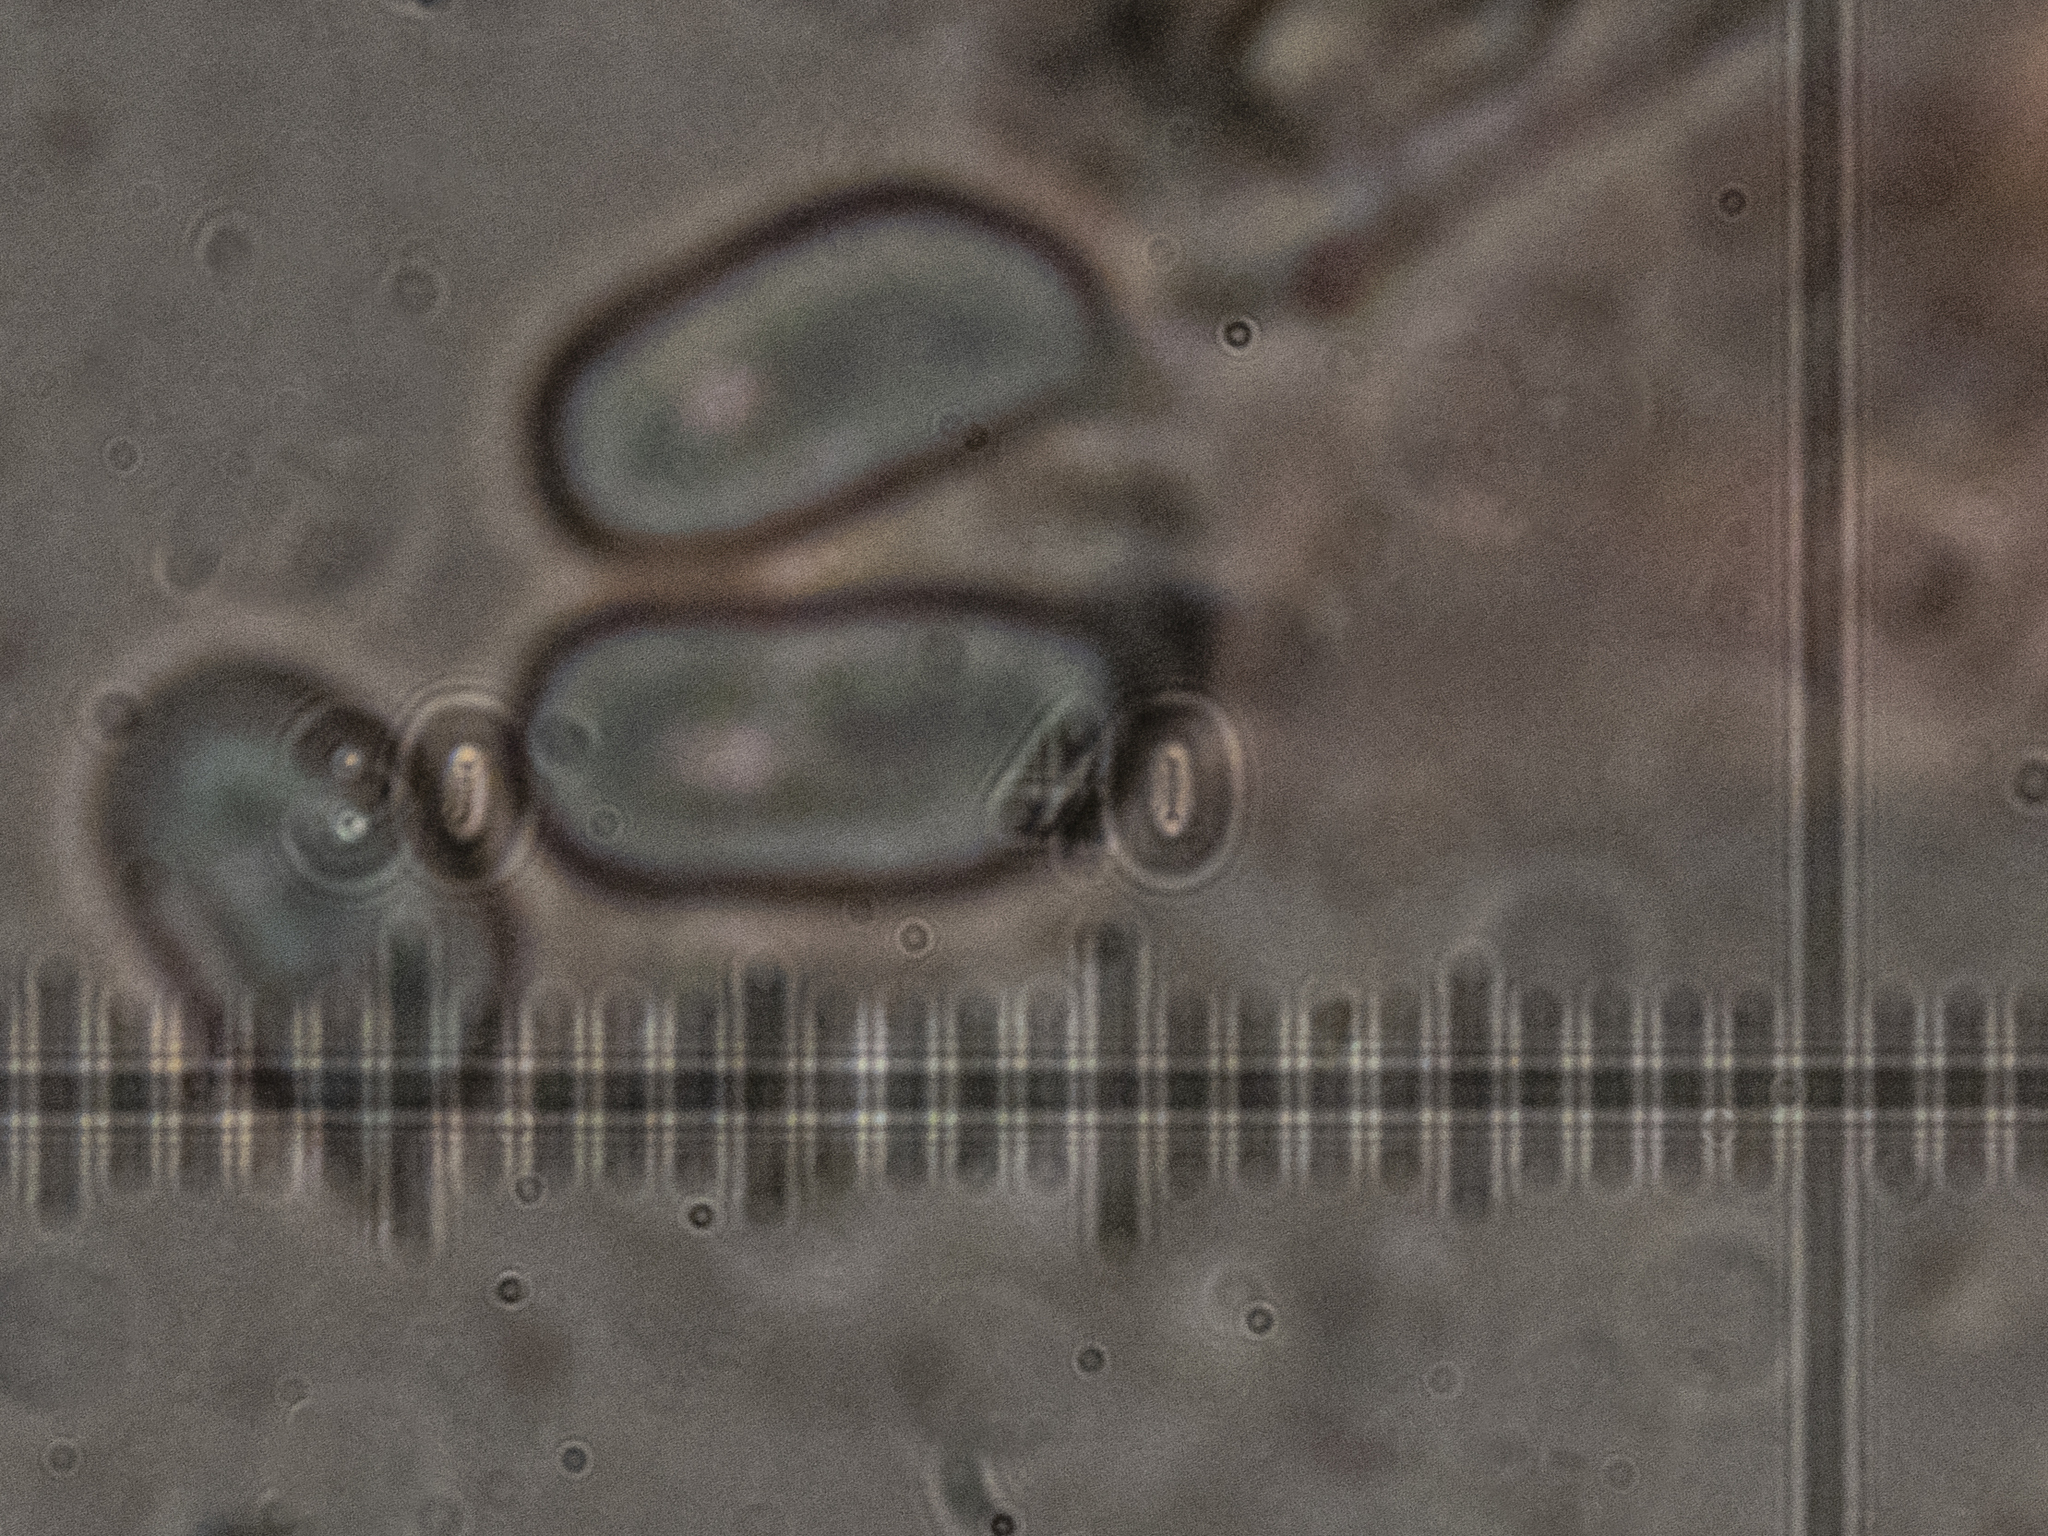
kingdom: Fungi
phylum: Basidiomycota
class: Agaricomycetes
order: Agaricales
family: Hygrophoraceae
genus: Hygrocybe
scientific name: Hygrocybe coccinea
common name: Scarlet hood
